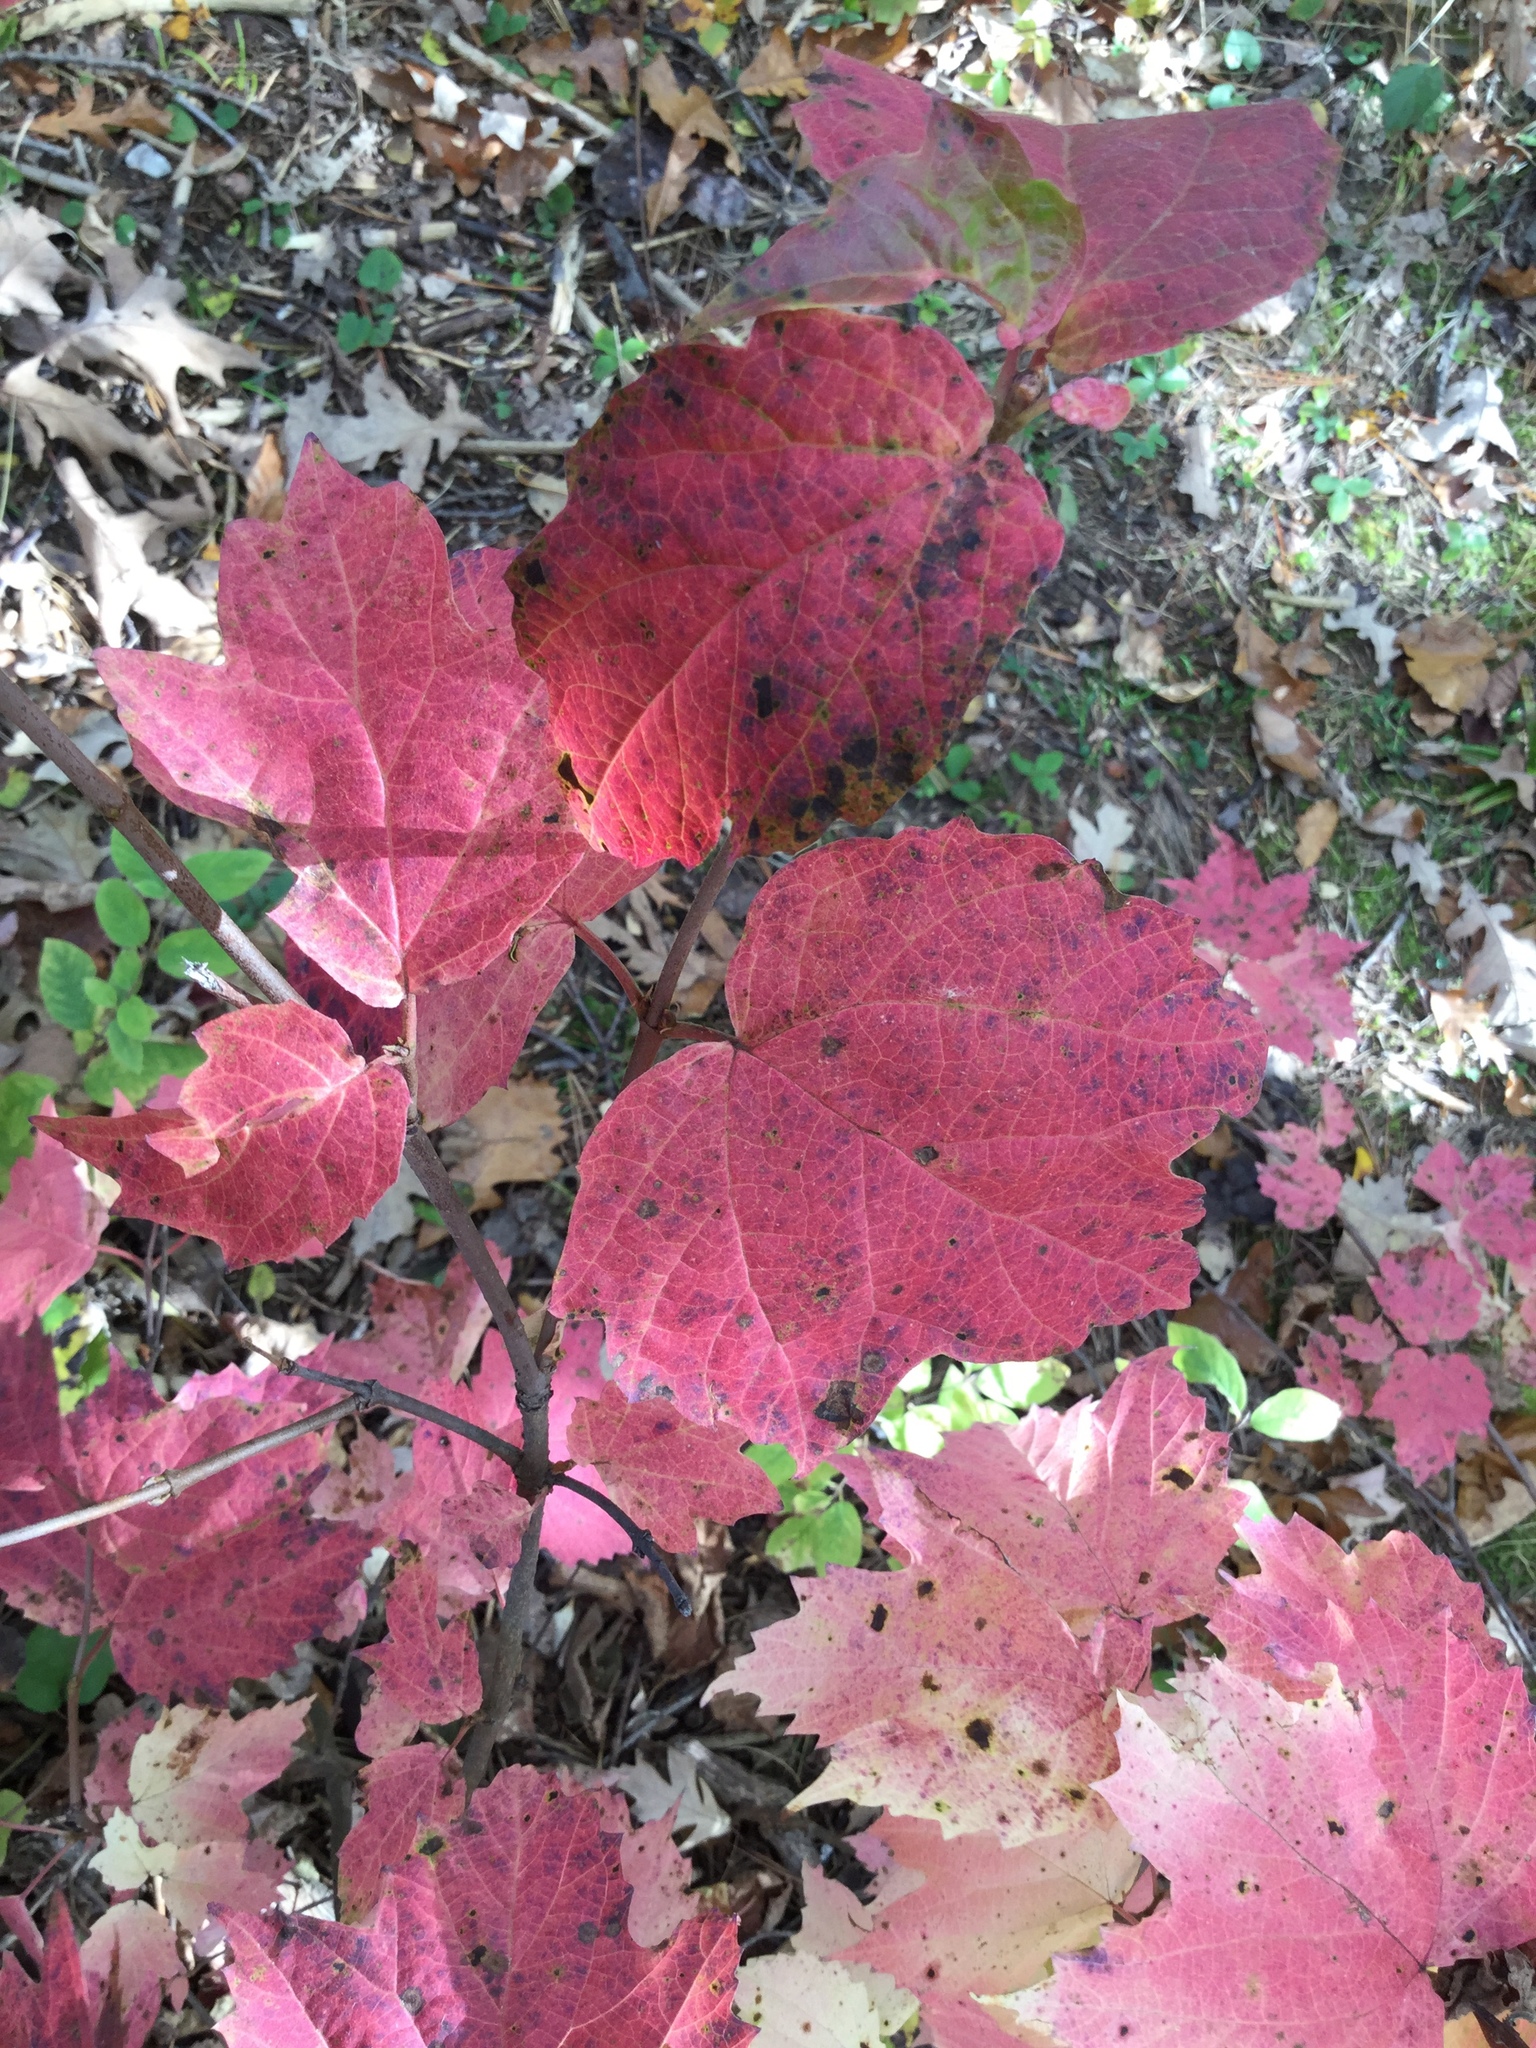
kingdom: Plantae
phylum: Tracheophyta
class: Magnoliopsida
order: Dipsacales
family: Viburnaceae
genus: Viburnum
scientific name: Viburnum acerifolium
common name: Dockmackie
